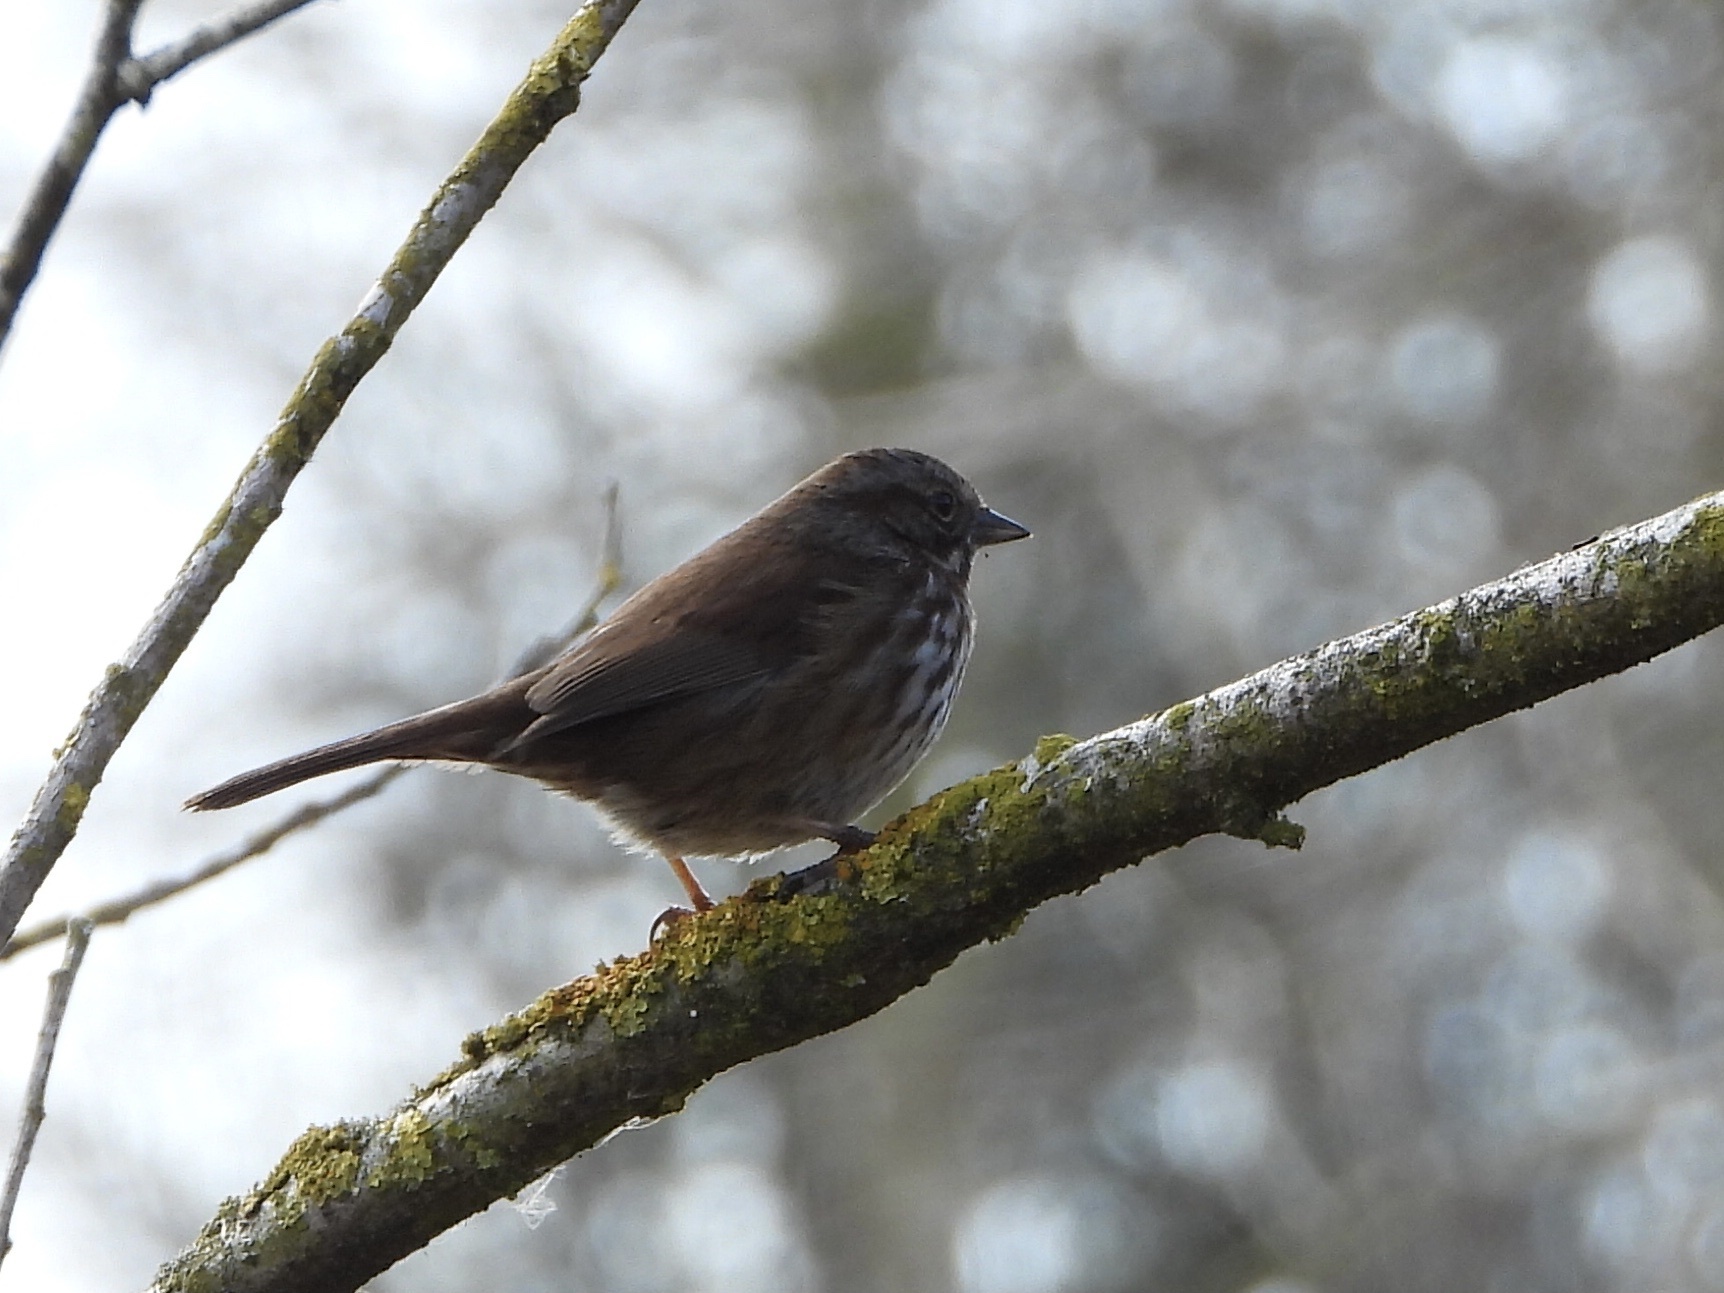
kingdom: Animalia
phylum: Chordata
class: Aves
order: Passeriformes
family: Passerellidae
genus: Melospiza
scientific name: Melospiza melodia
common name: Song sparrow
